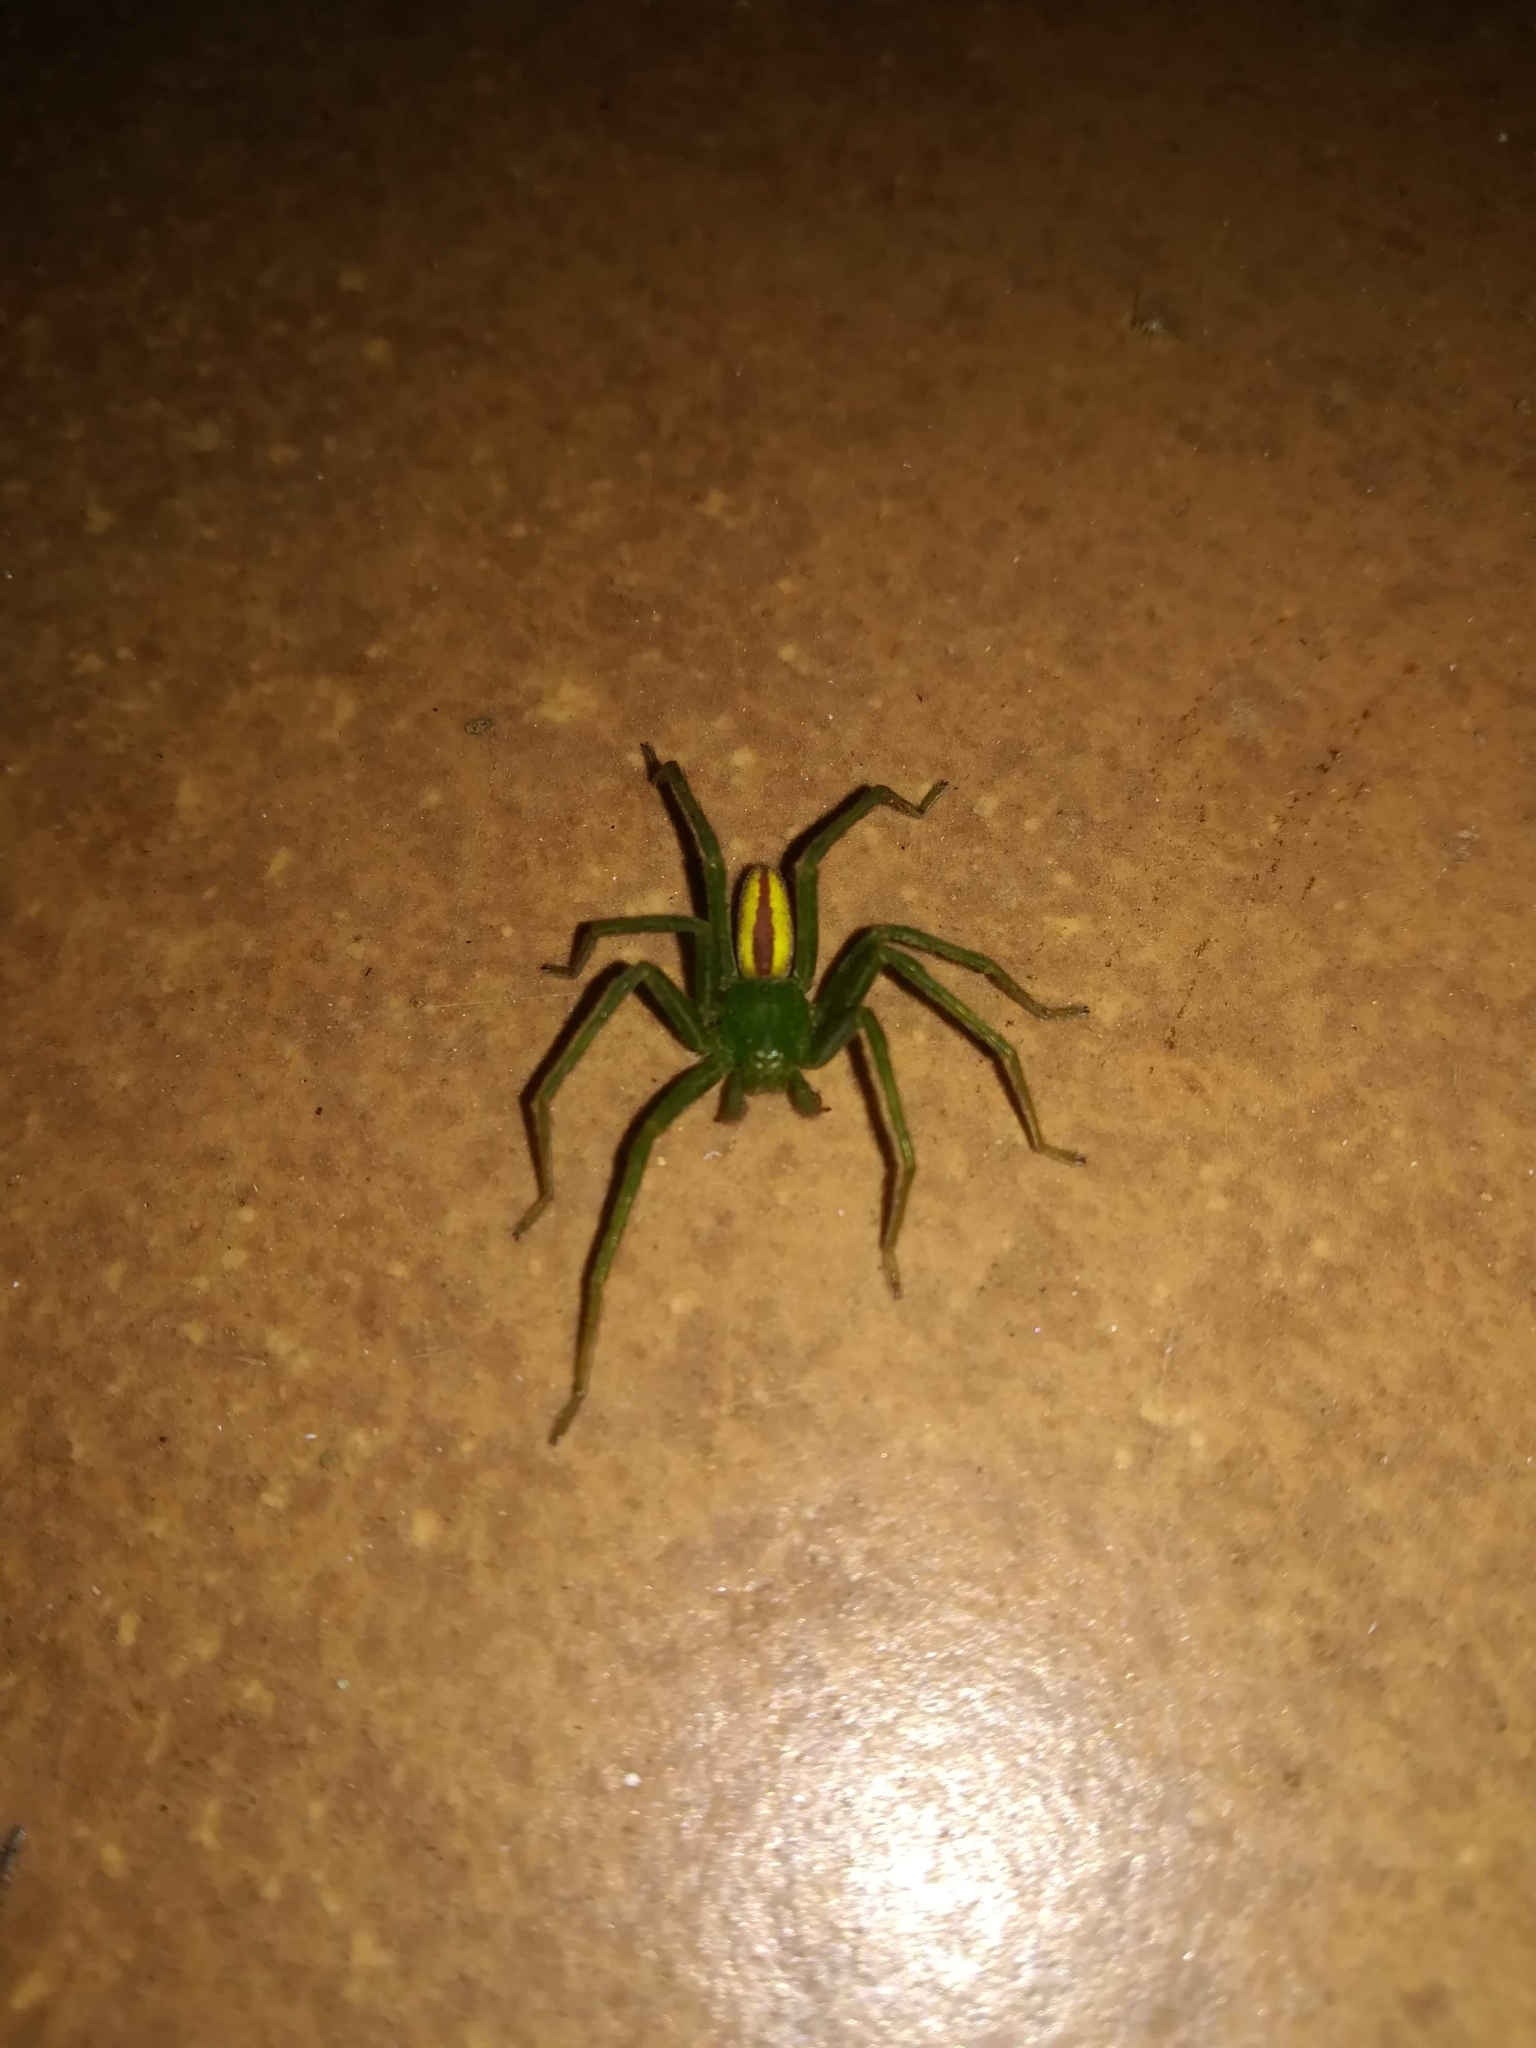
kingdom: Animalia
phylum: Arthropoda
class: Arachnida
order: Araneae
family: Sparassidae
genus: Micrommata
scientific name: Micrommata virescens
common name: Green spider
